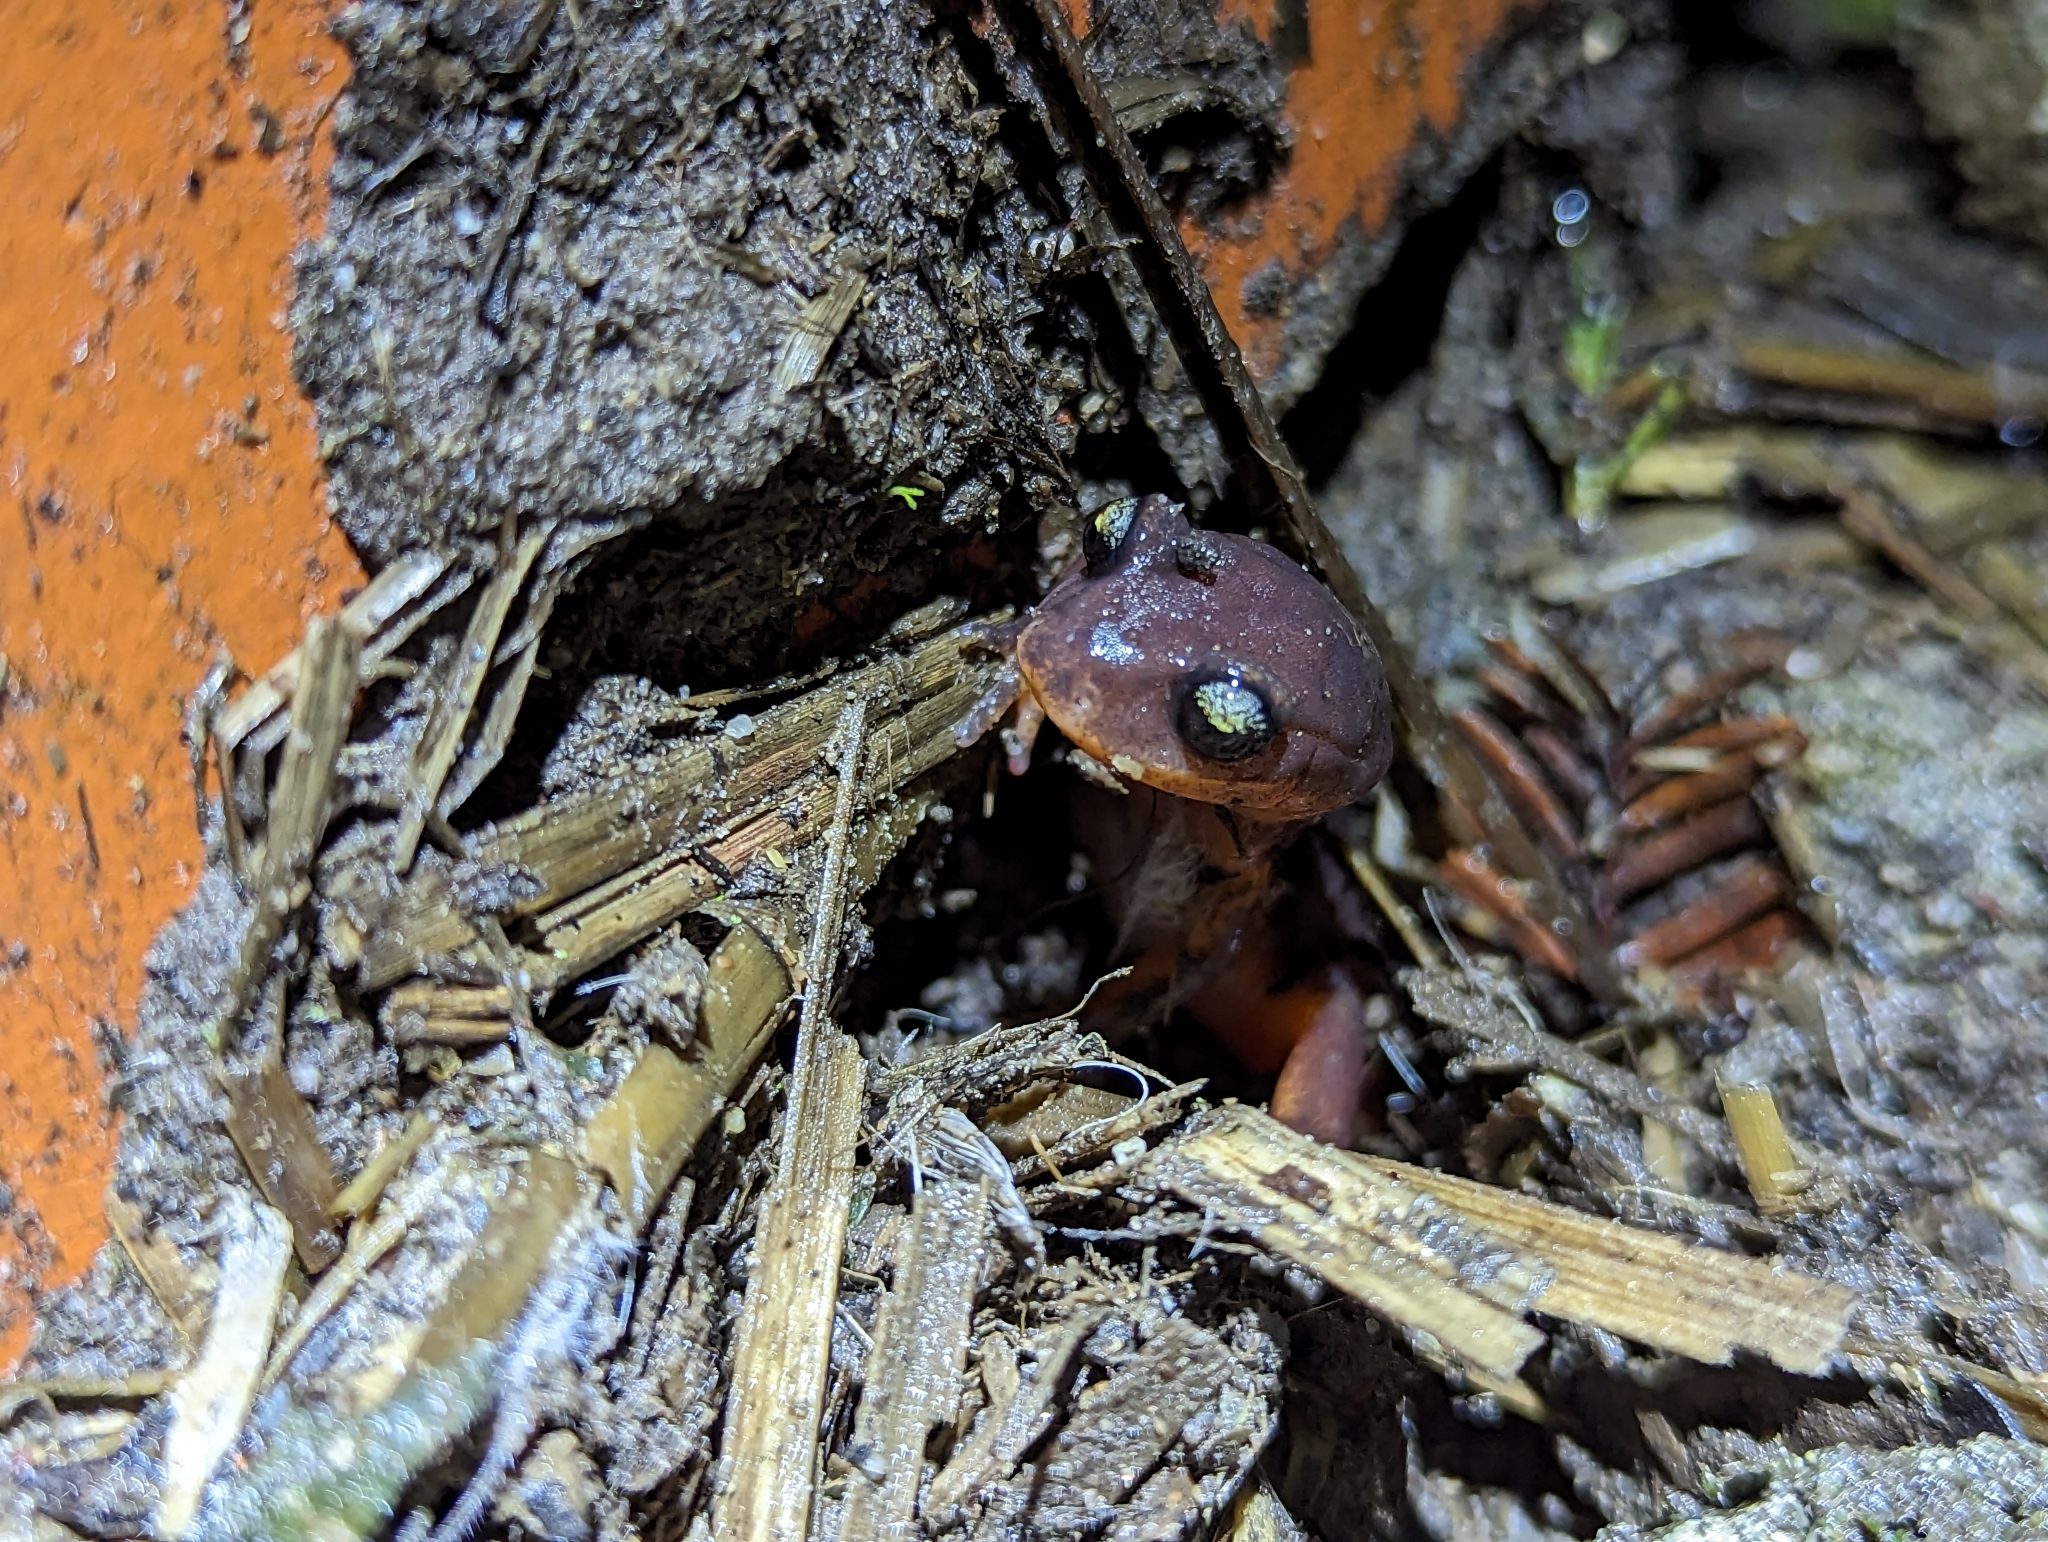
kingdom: Animalia
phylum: Chordata
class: Amphibia
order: Caudata
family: Plethodontidae
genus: Ensatina
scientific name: Ensatina eschscholtzii
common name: Ensatina
